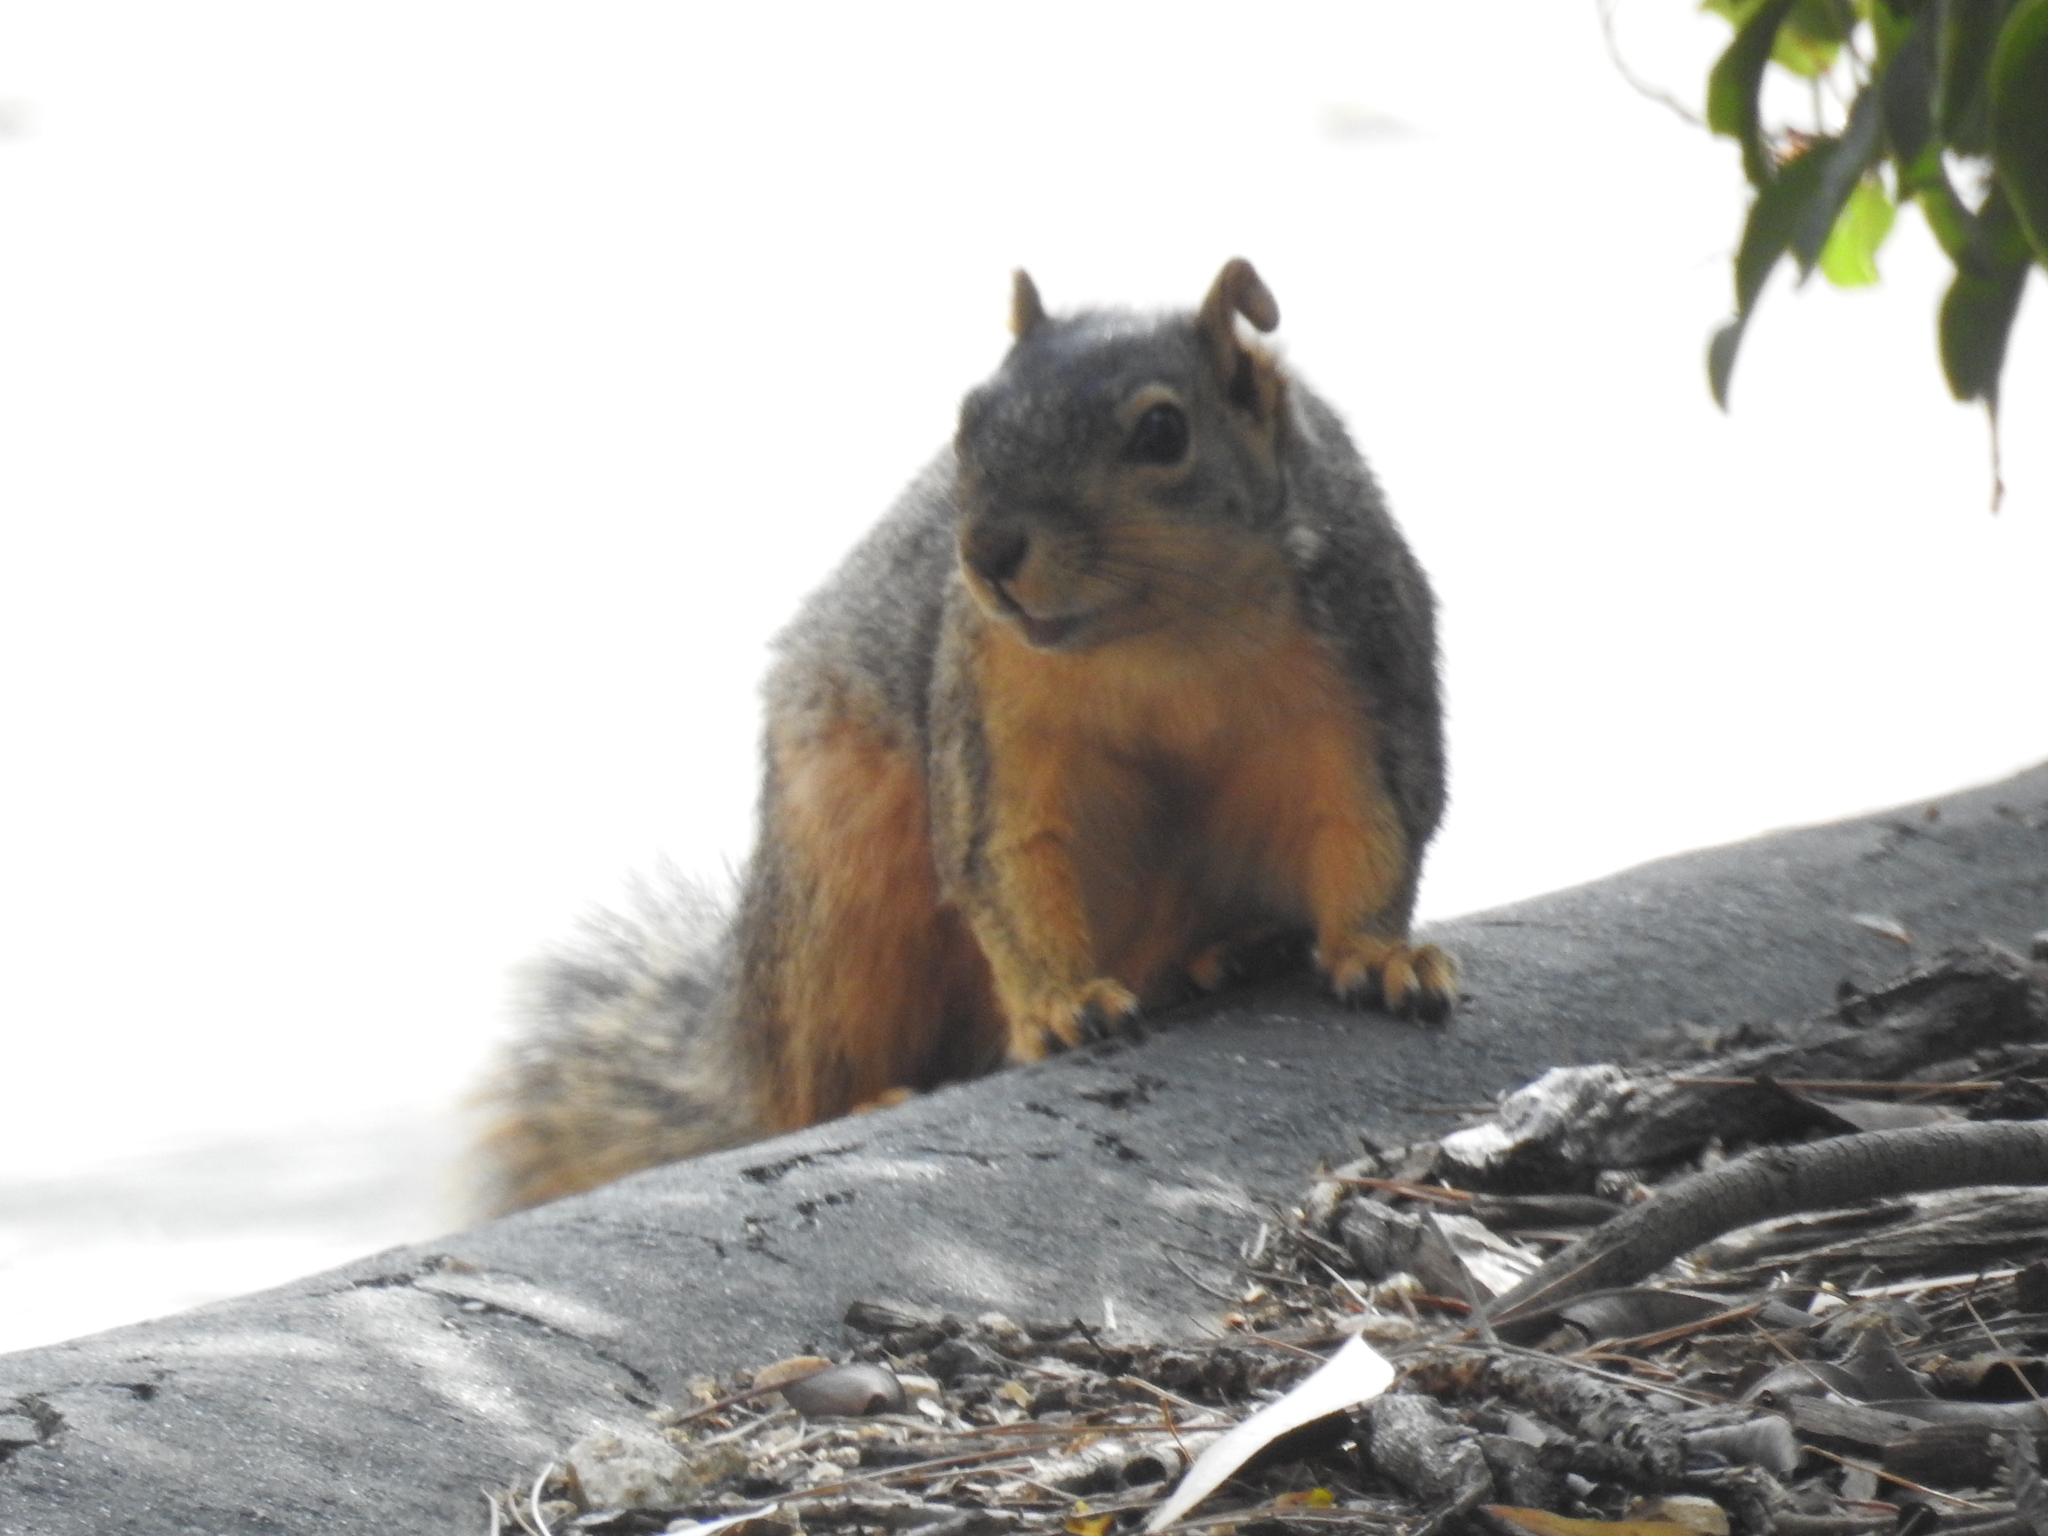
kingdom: Animalia
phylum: Chordata
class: Mammalia
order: Rodentia
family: Sciuridae
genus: Sciurus
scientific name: Sciurus niger
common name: Fox squirrel
